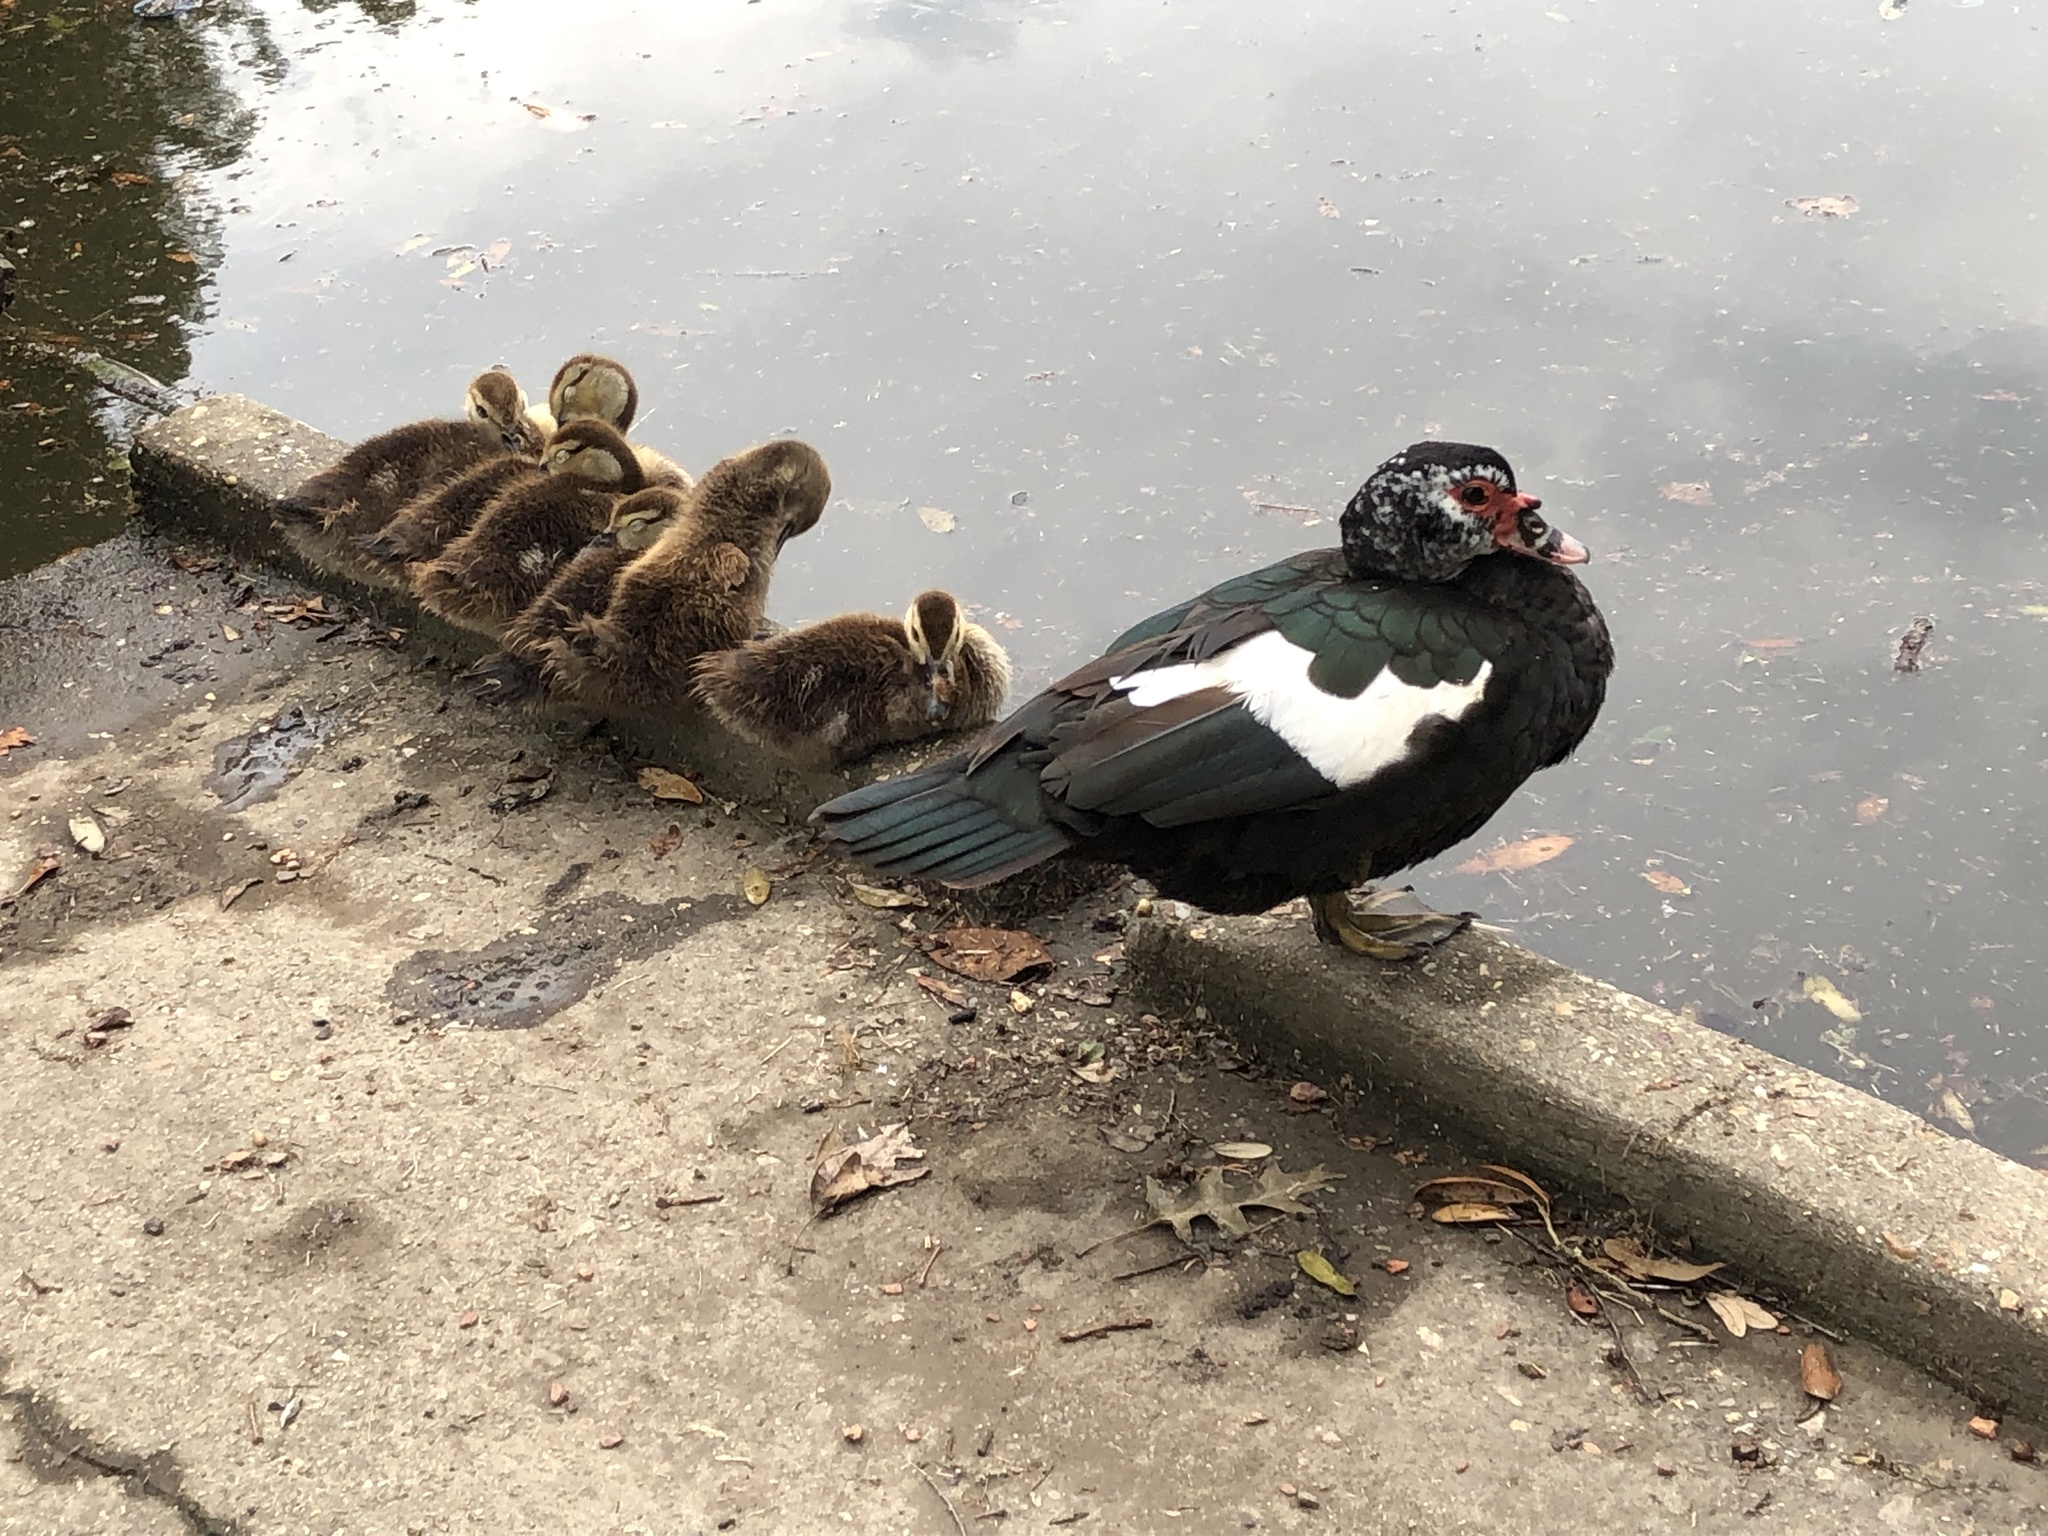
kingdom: Animalia
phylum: Chordata
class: Aves
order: Anseriformes
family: Anatidae
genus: Cairina
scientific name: Cairina moschata
